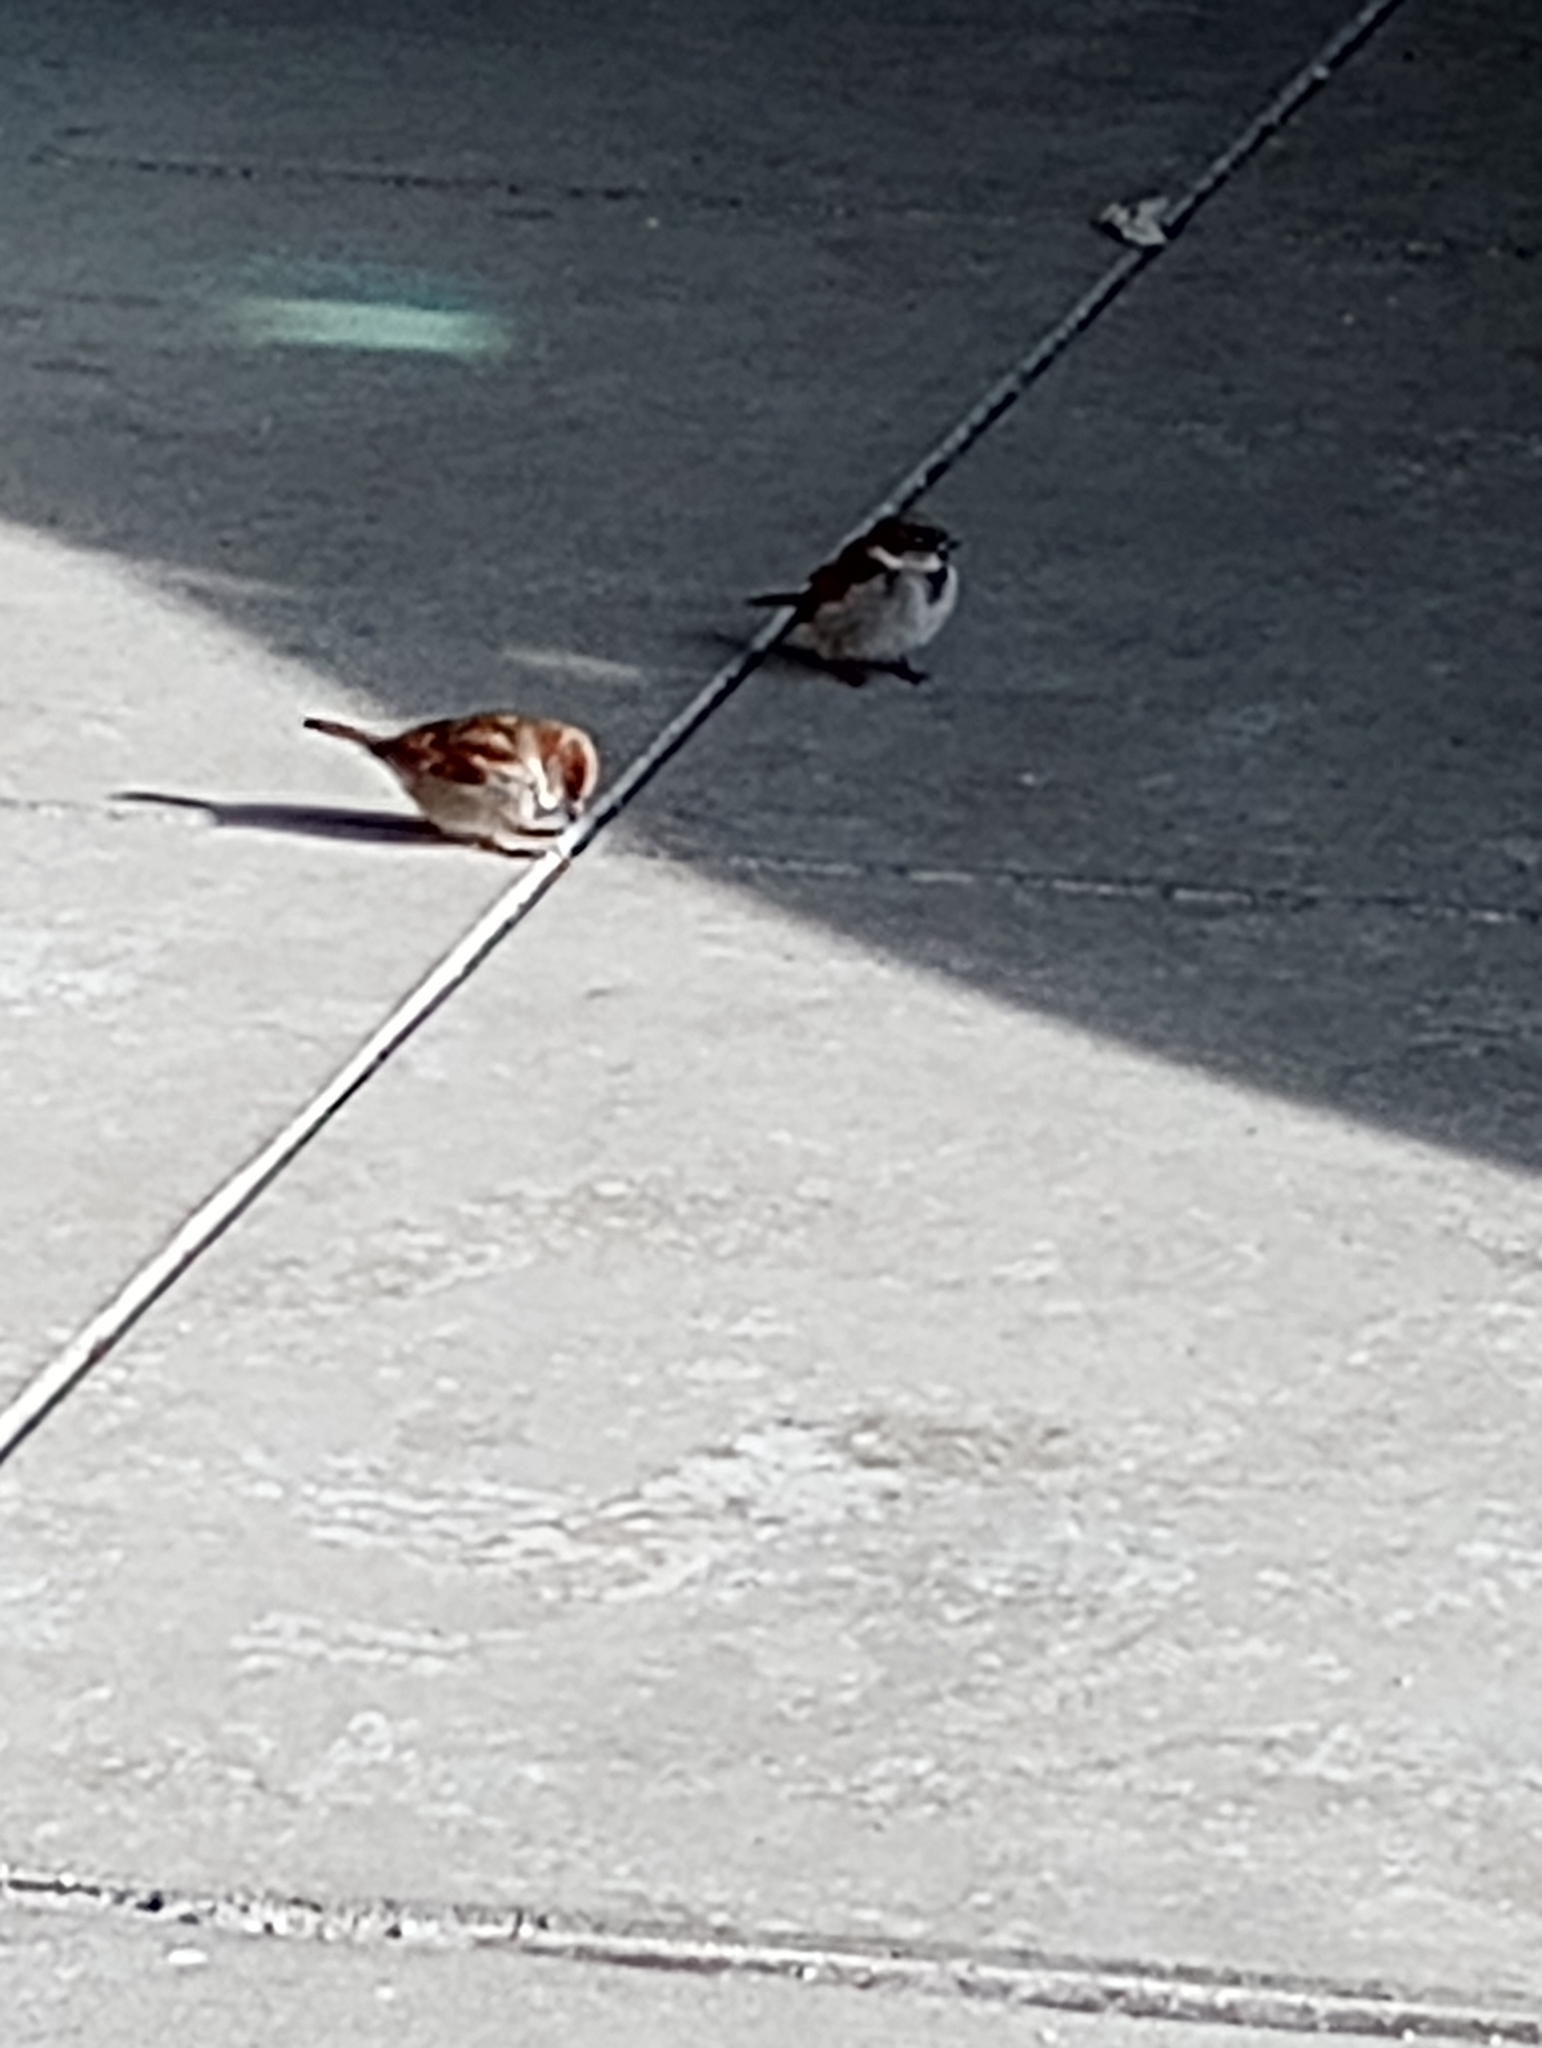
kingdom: Animalia
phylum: Chordata
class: Aves
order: Passeriformes
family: Passeridae
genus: Passer
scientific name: Passer domesticus
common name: House sparrow
